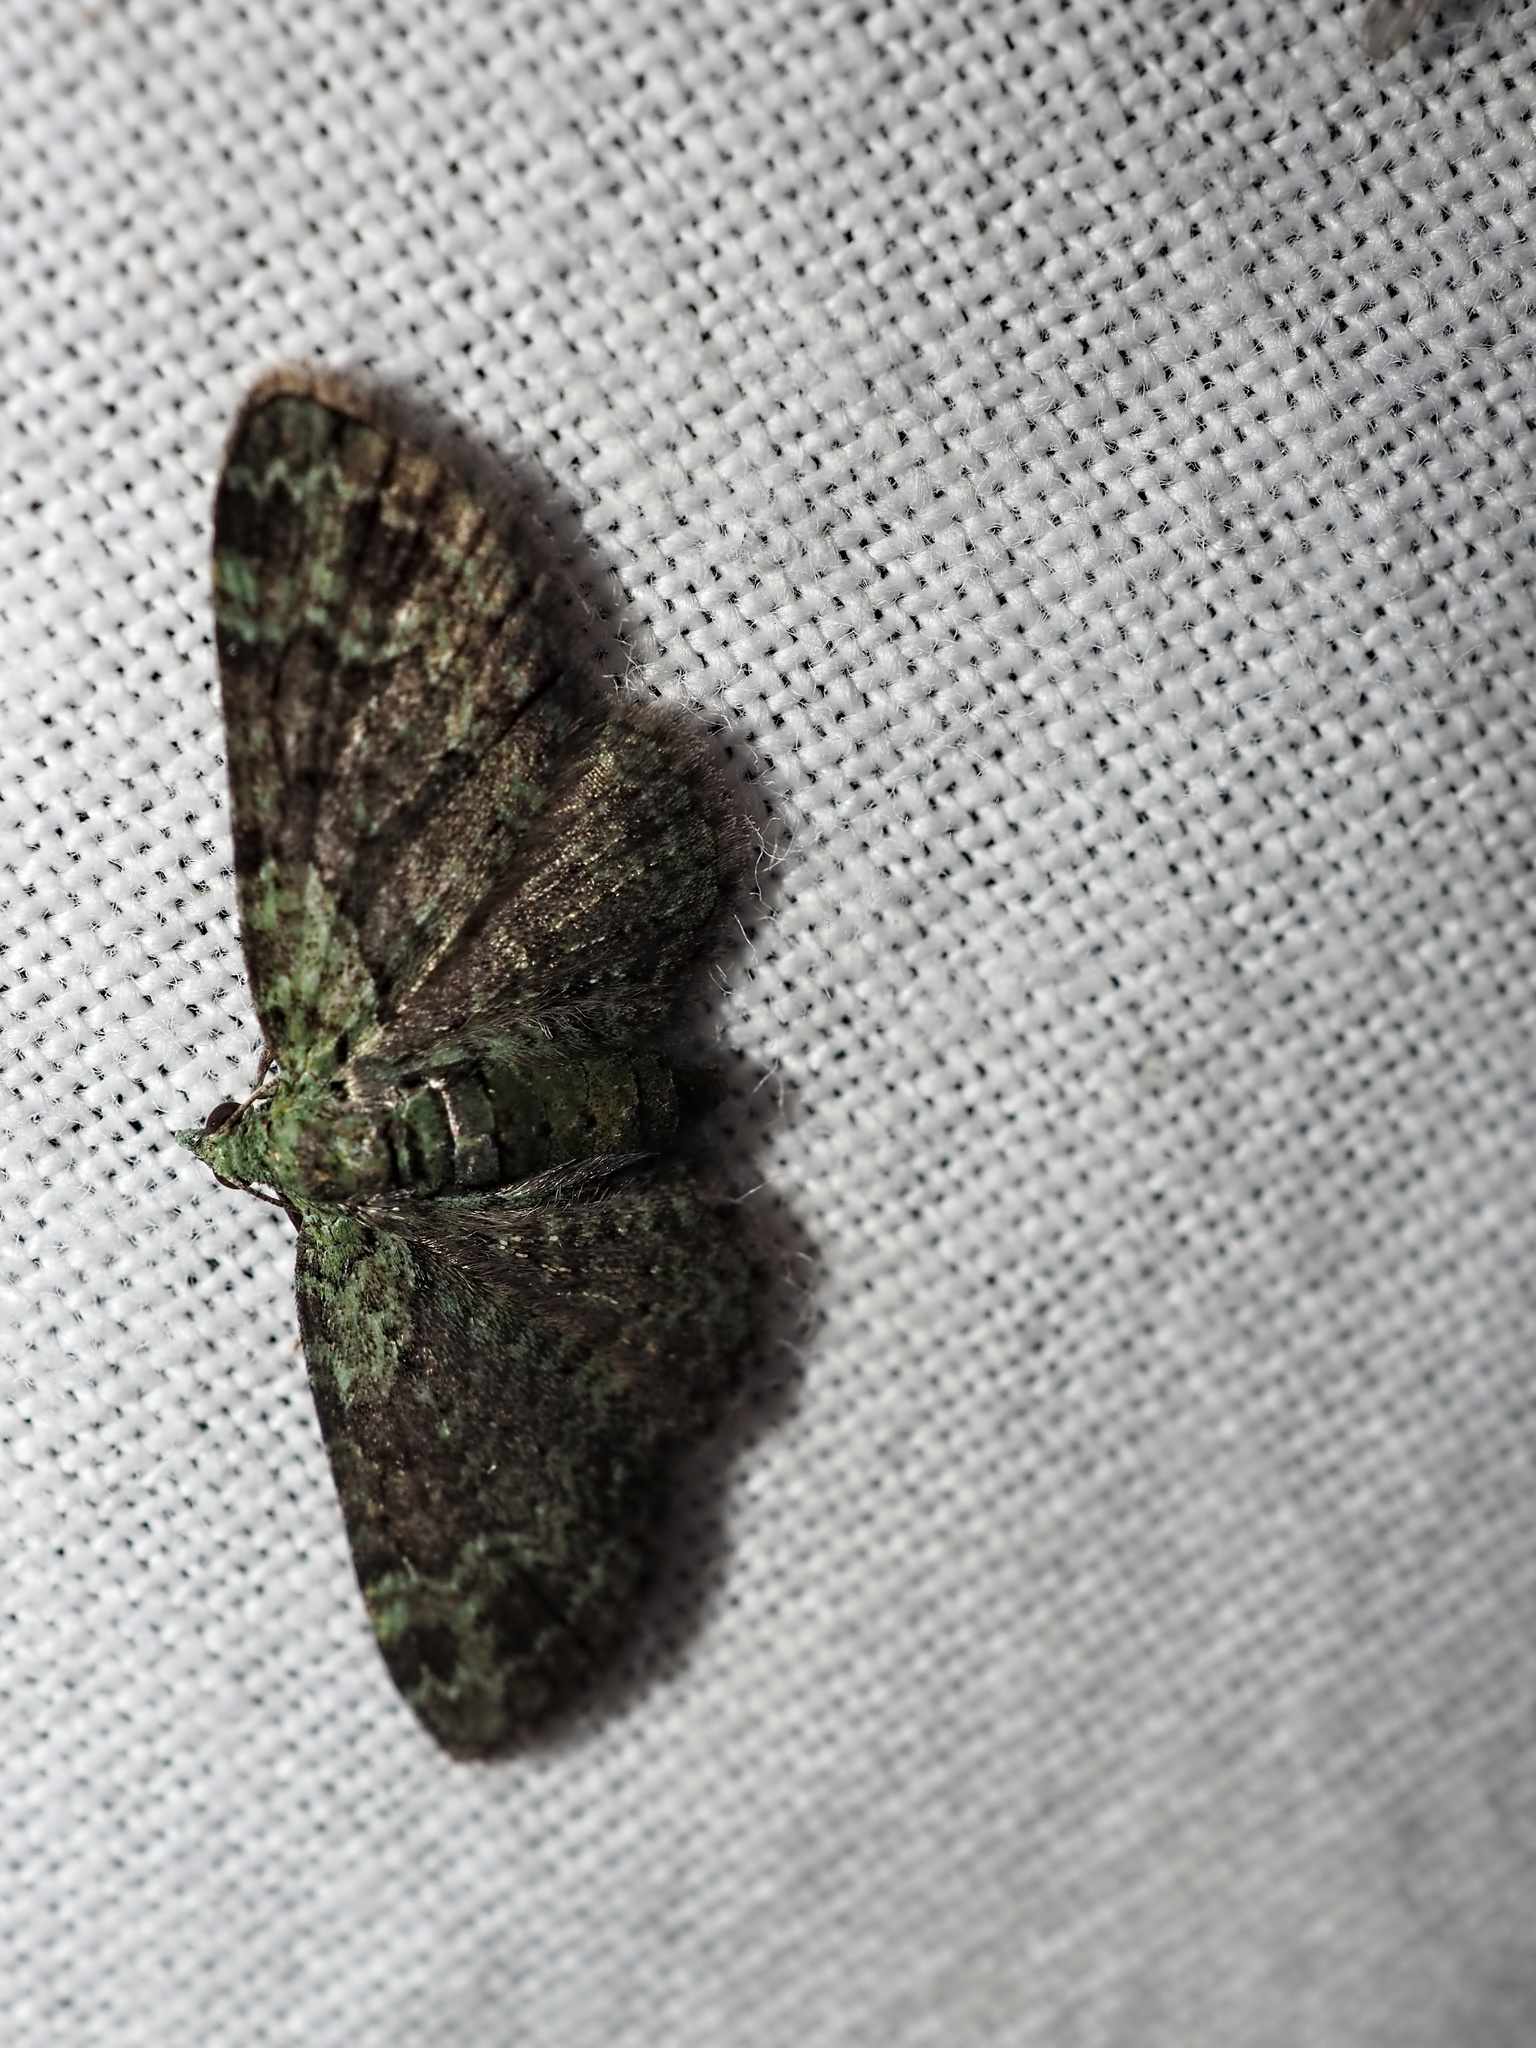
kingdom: Animalia
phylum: Arthropoda
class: Insecta
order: Lepidoptera
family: Geometridae
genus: Pasiphila
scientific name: Pasiphila rectangulata
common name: Green pug
